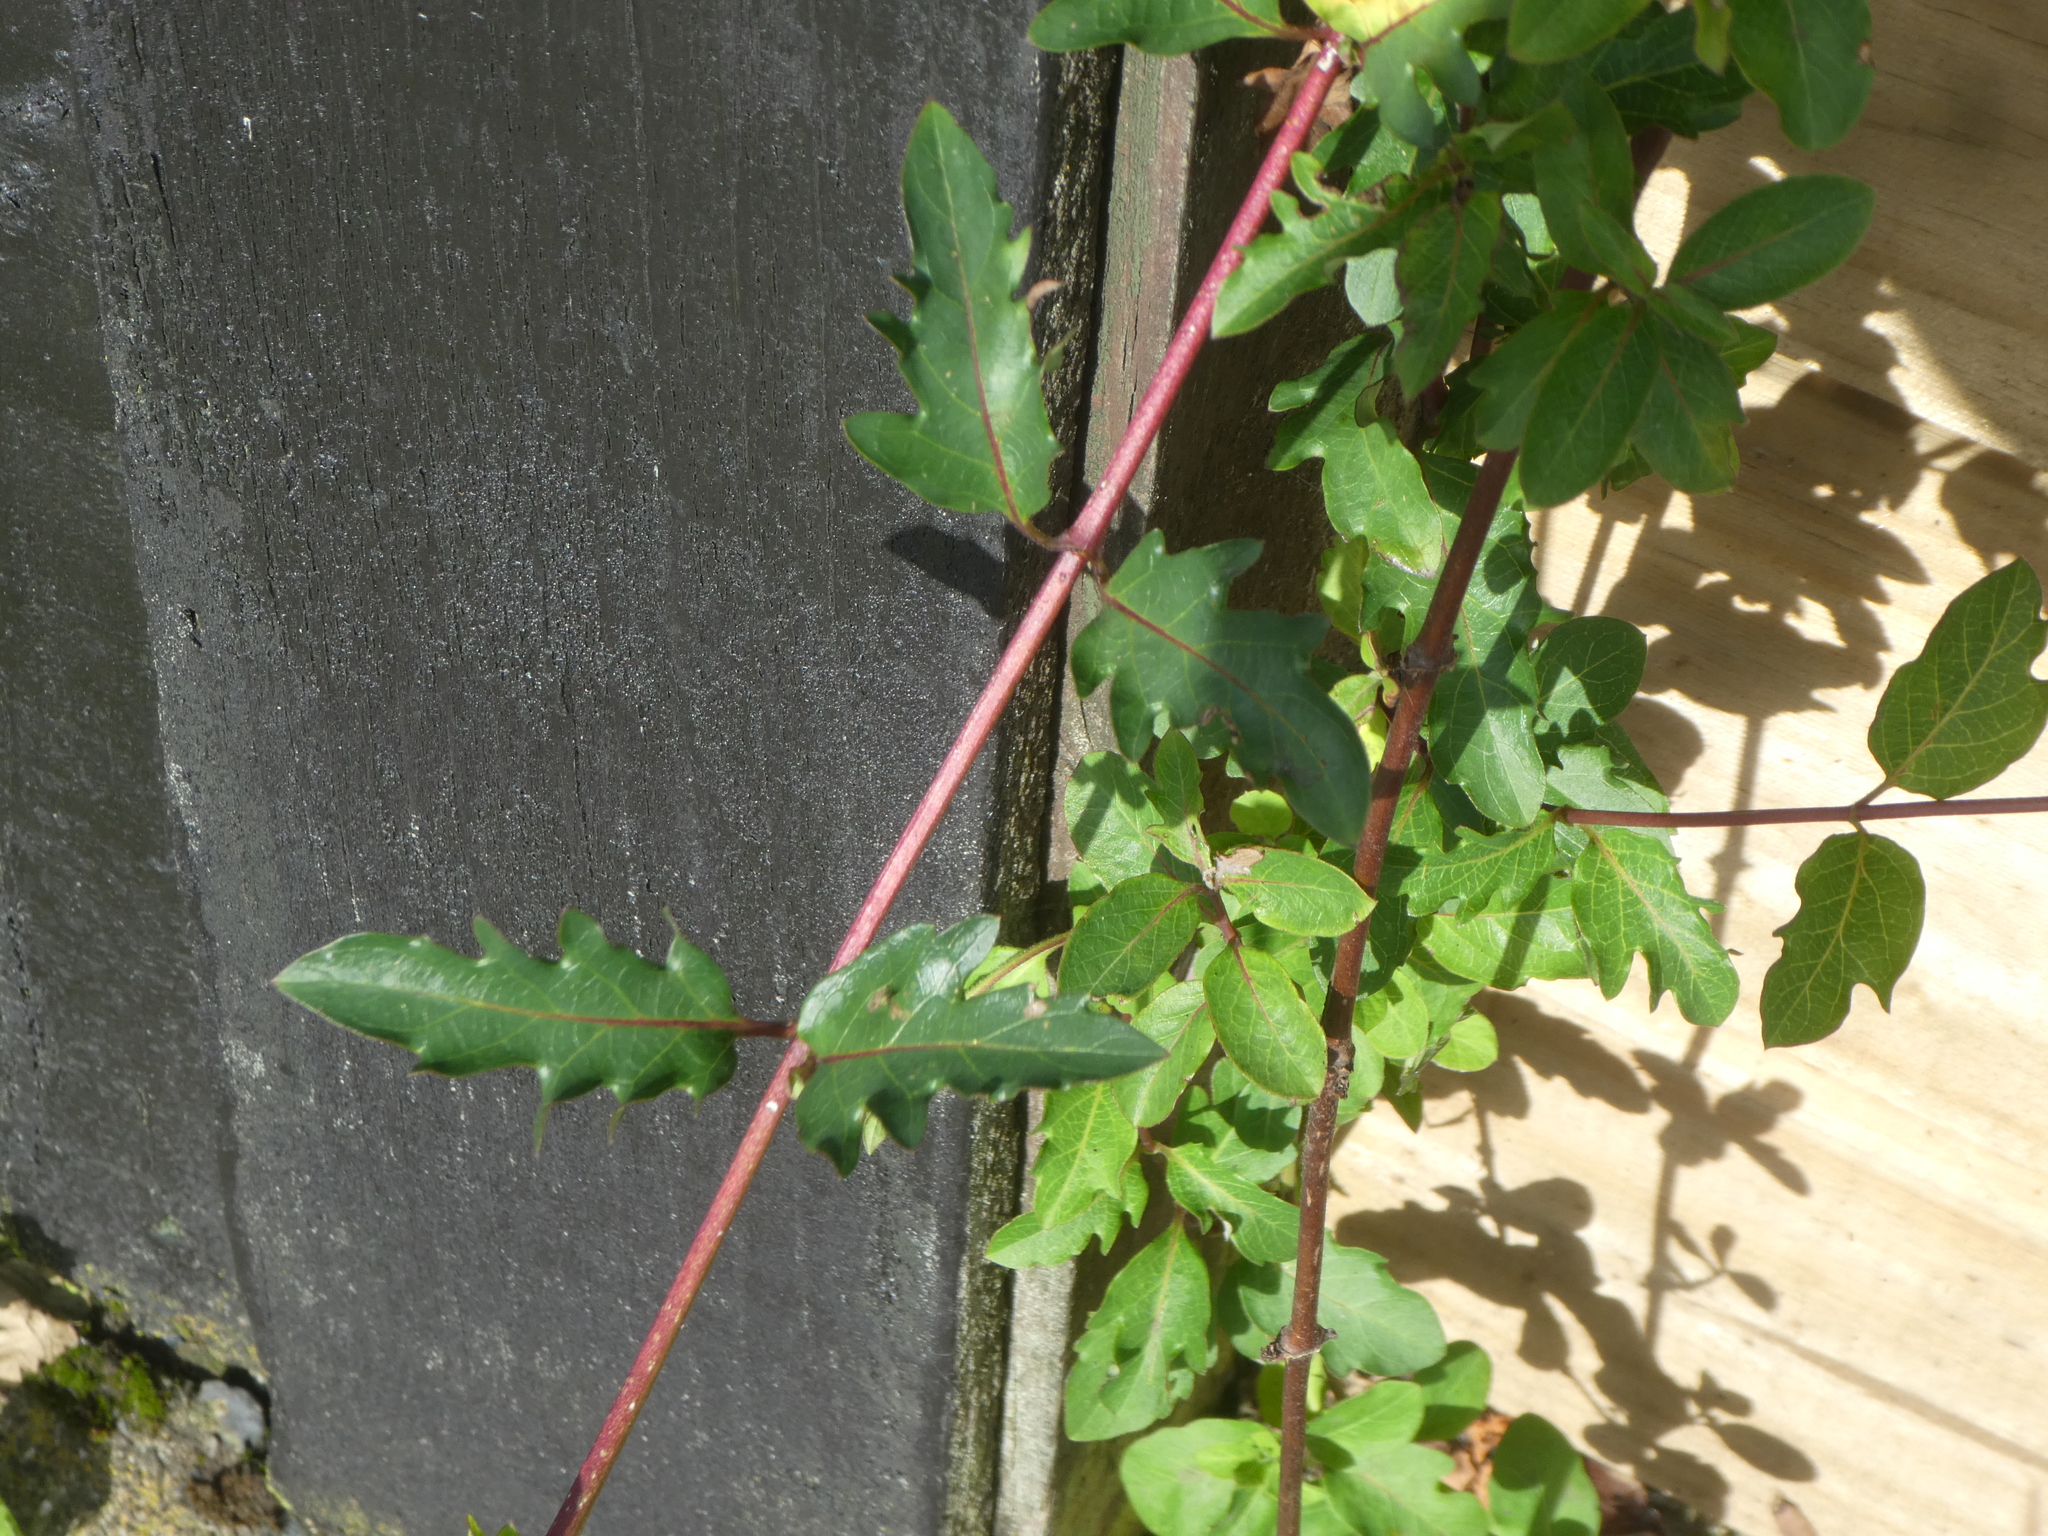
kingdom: Plantae
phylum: Tracheophyta
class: Magnoliopsida
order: Dipsacales
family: Caprifoliaceae
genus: Lonicera
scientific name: Lonicera japonica
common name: Japanese honeysuckle
